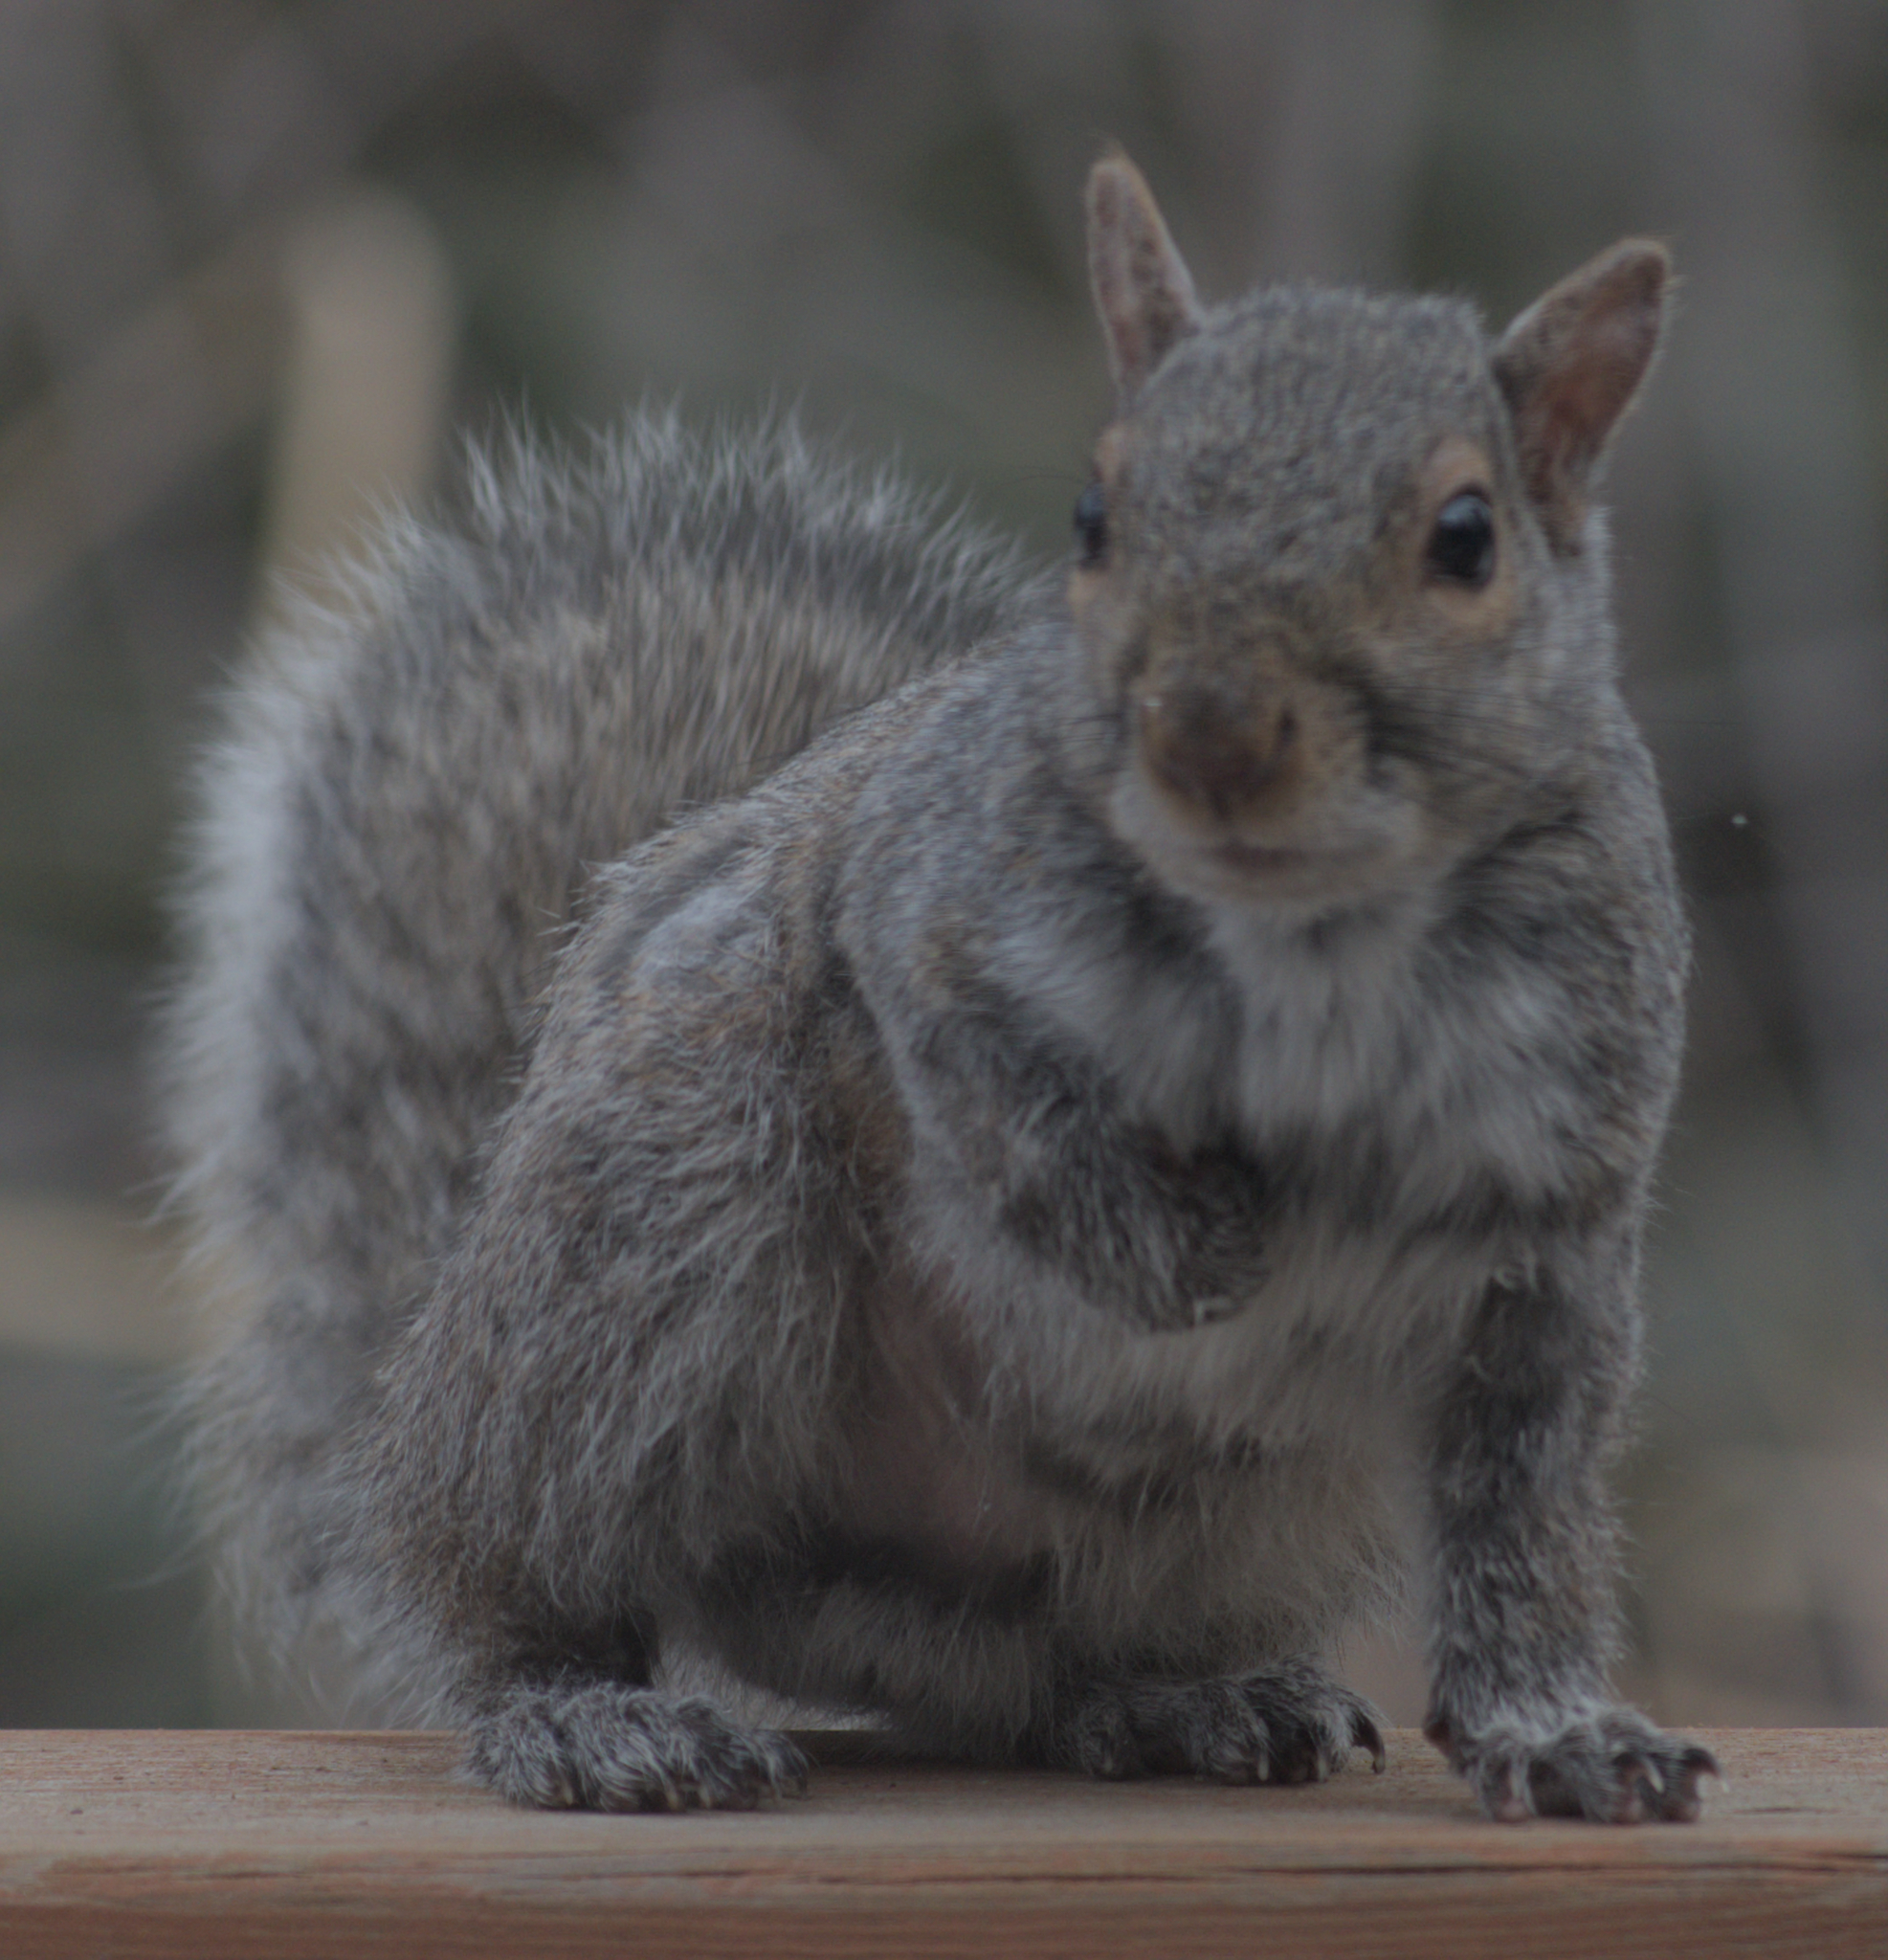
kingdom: Animalia
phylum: Chordata
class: Mammalia
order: Rodentia
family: Sciuridae
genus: Sciurus
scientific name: Sciurus carolinensis
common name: Eastern gray squirrel
